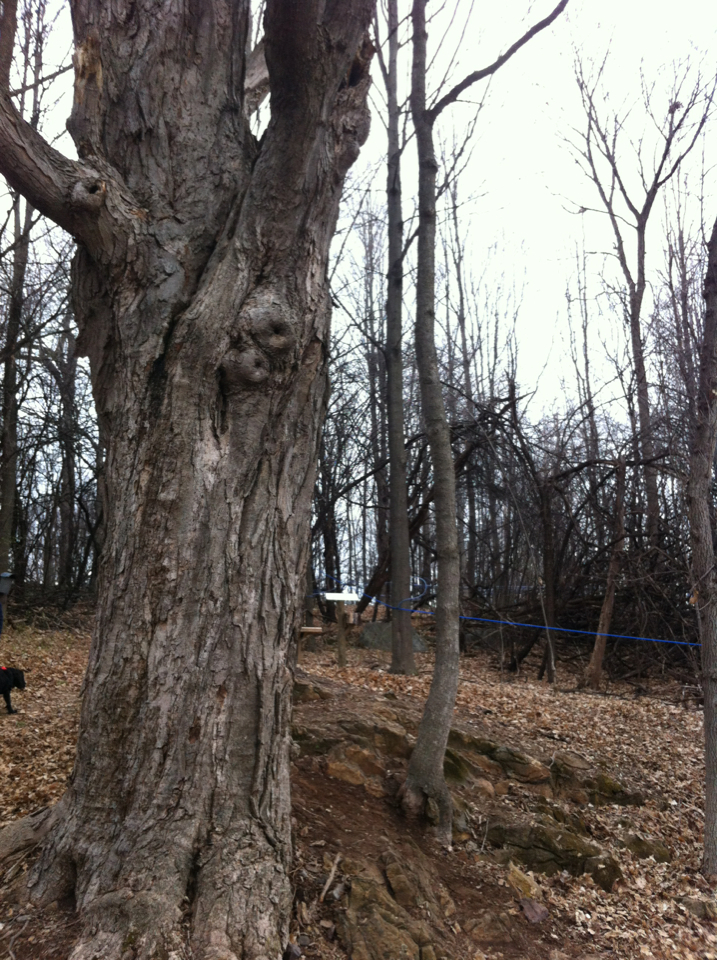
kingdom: Plantae
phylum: Tracheophyta
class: Magnoliopsida
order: Sapindales
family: Sapindaceae
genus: Acer
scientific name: Acer saccharum
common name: Sugar maple
